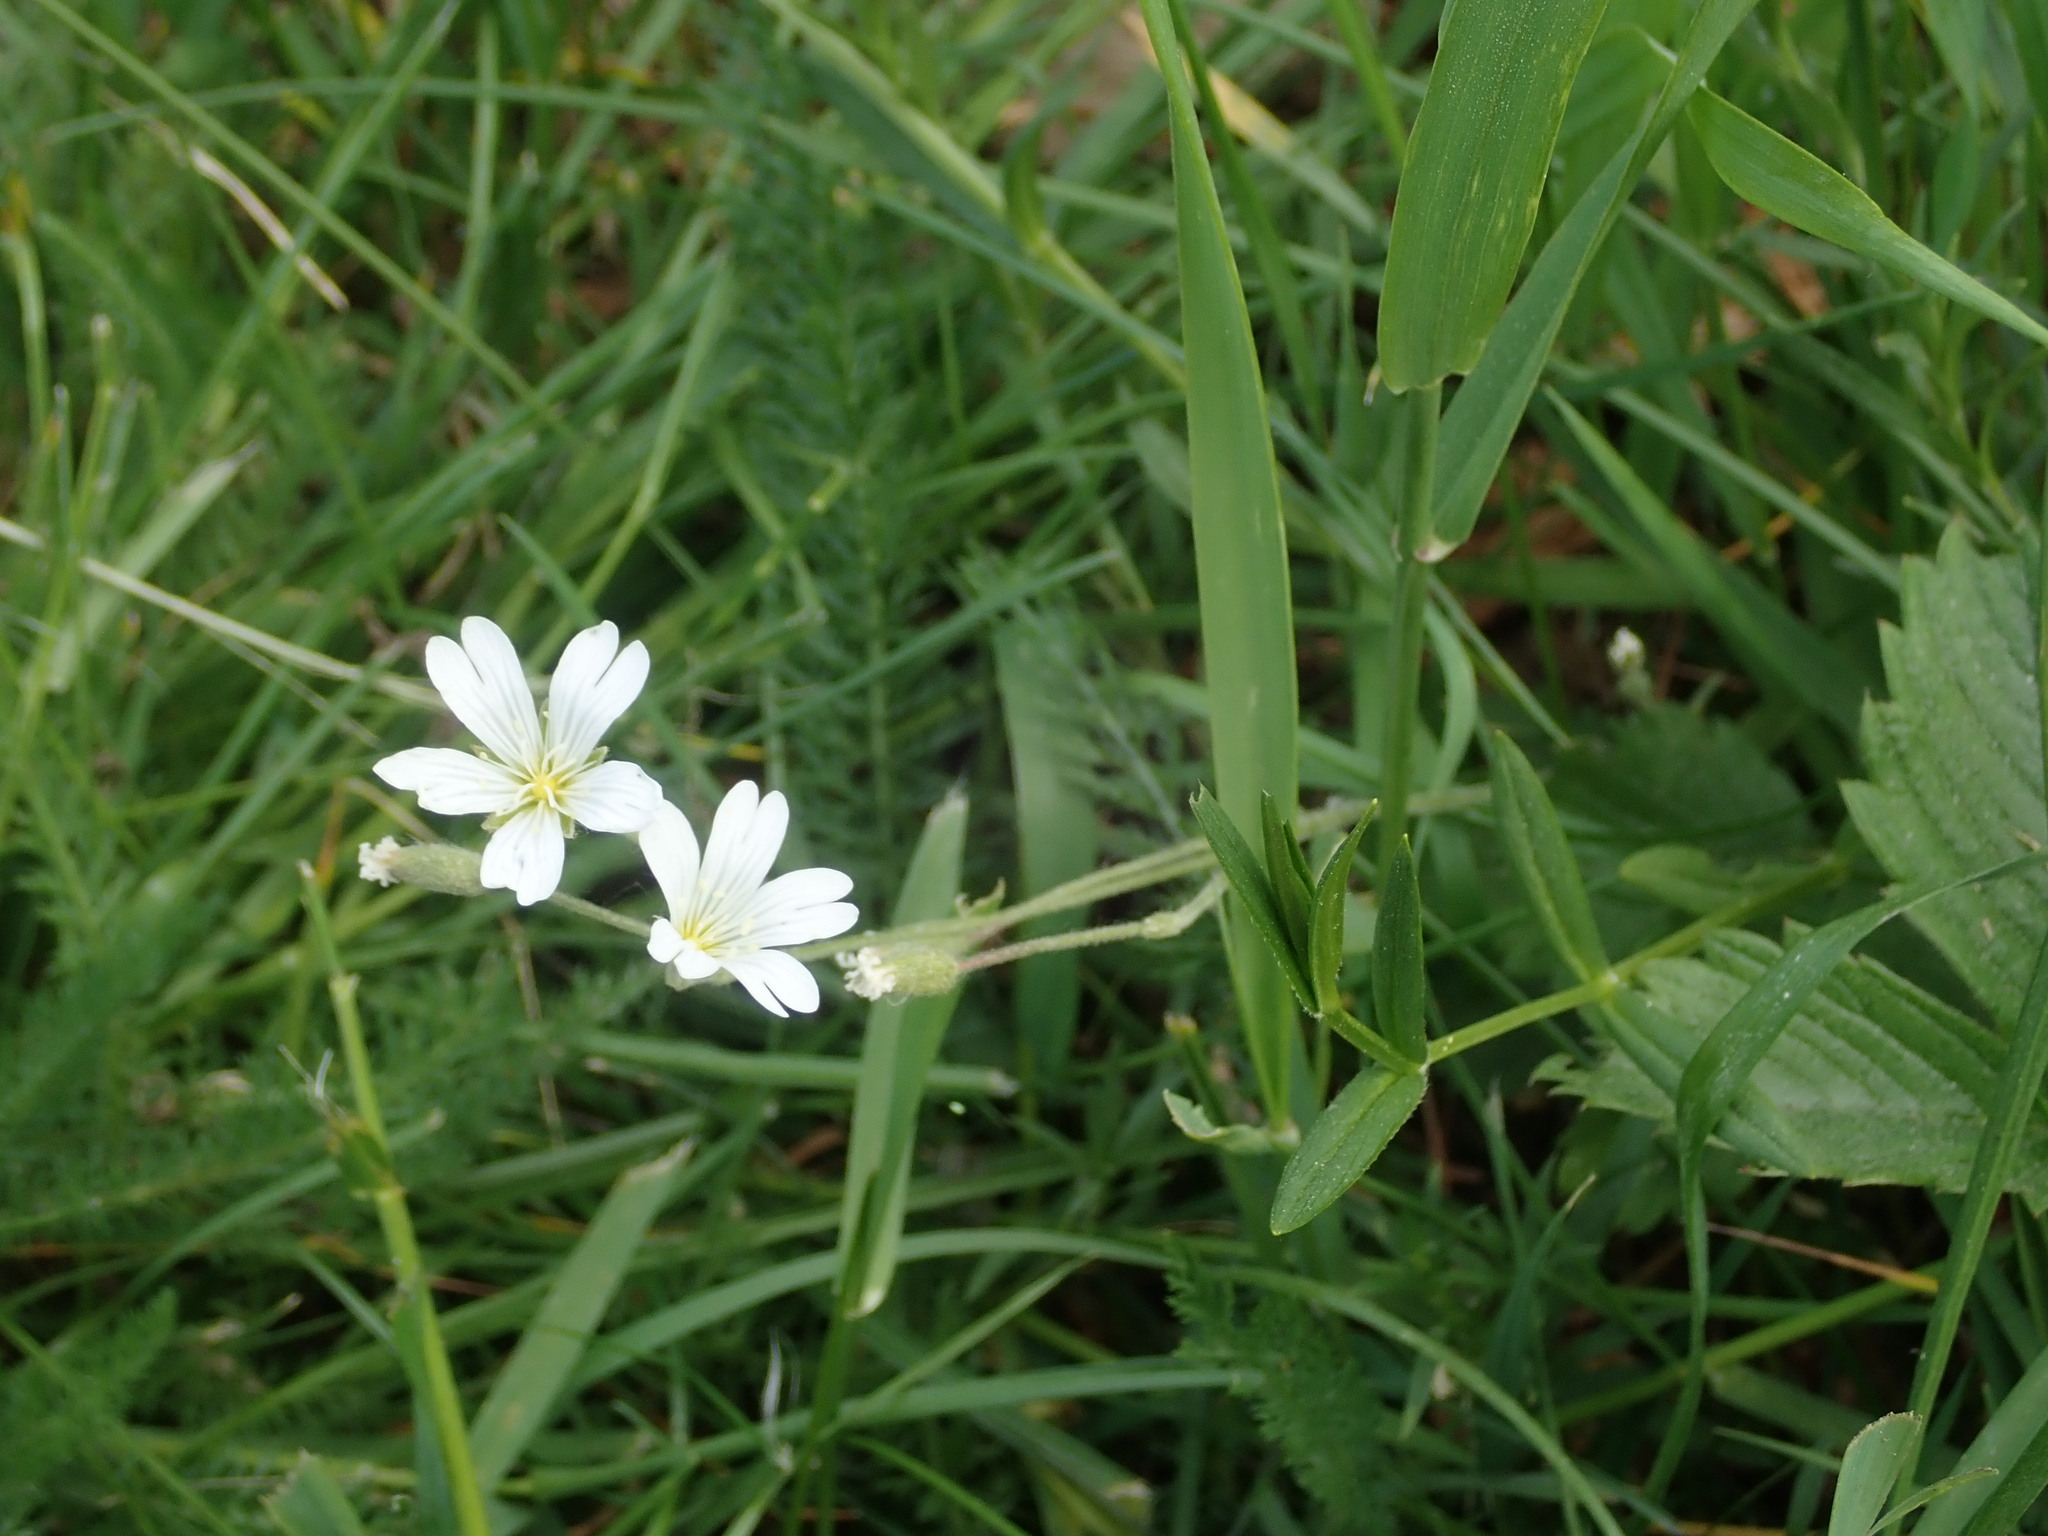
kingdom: Plantae
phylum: Tracheophyta
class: Magnoliopsida
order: Caryophyllales
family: Caryophyllaceae
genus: Cerastium
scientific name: Cerastium arvense
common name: Field mouse-ear
